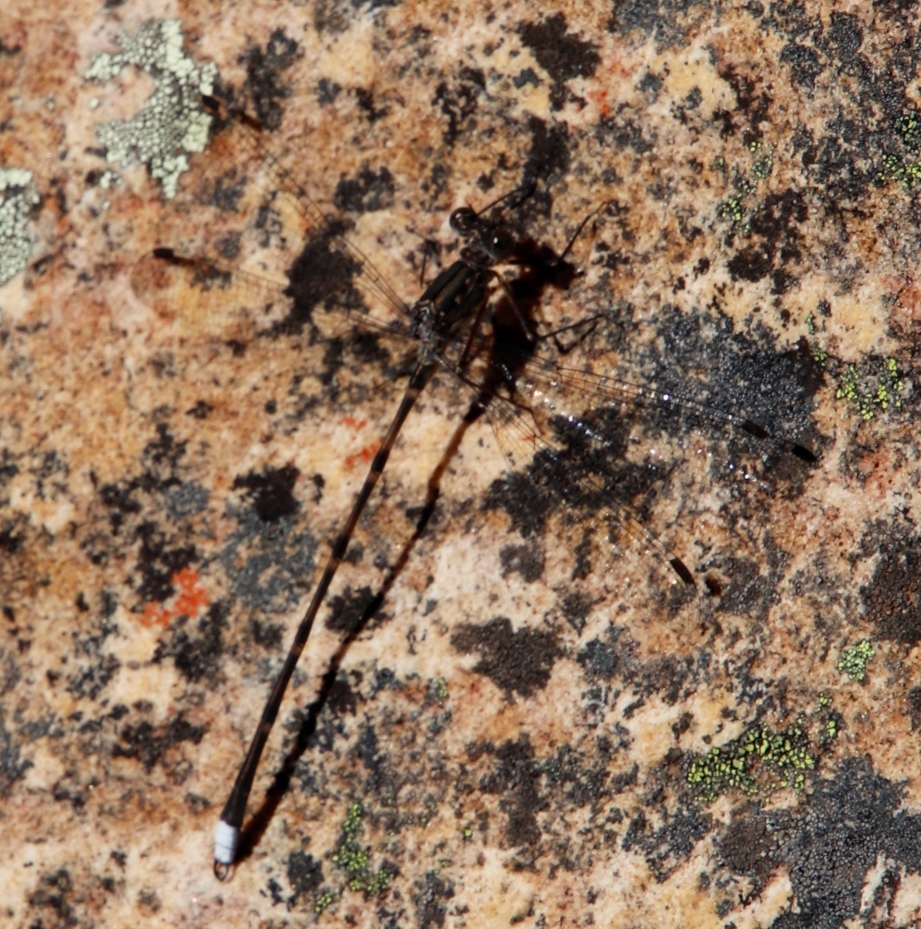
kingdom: Animalia
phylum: Arthropoda
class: Insecta
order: Odonata
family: Synlestidae
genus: Ecchlorolestes
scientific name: Ecchlorolestes peringueyi
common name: Marbled malachite
